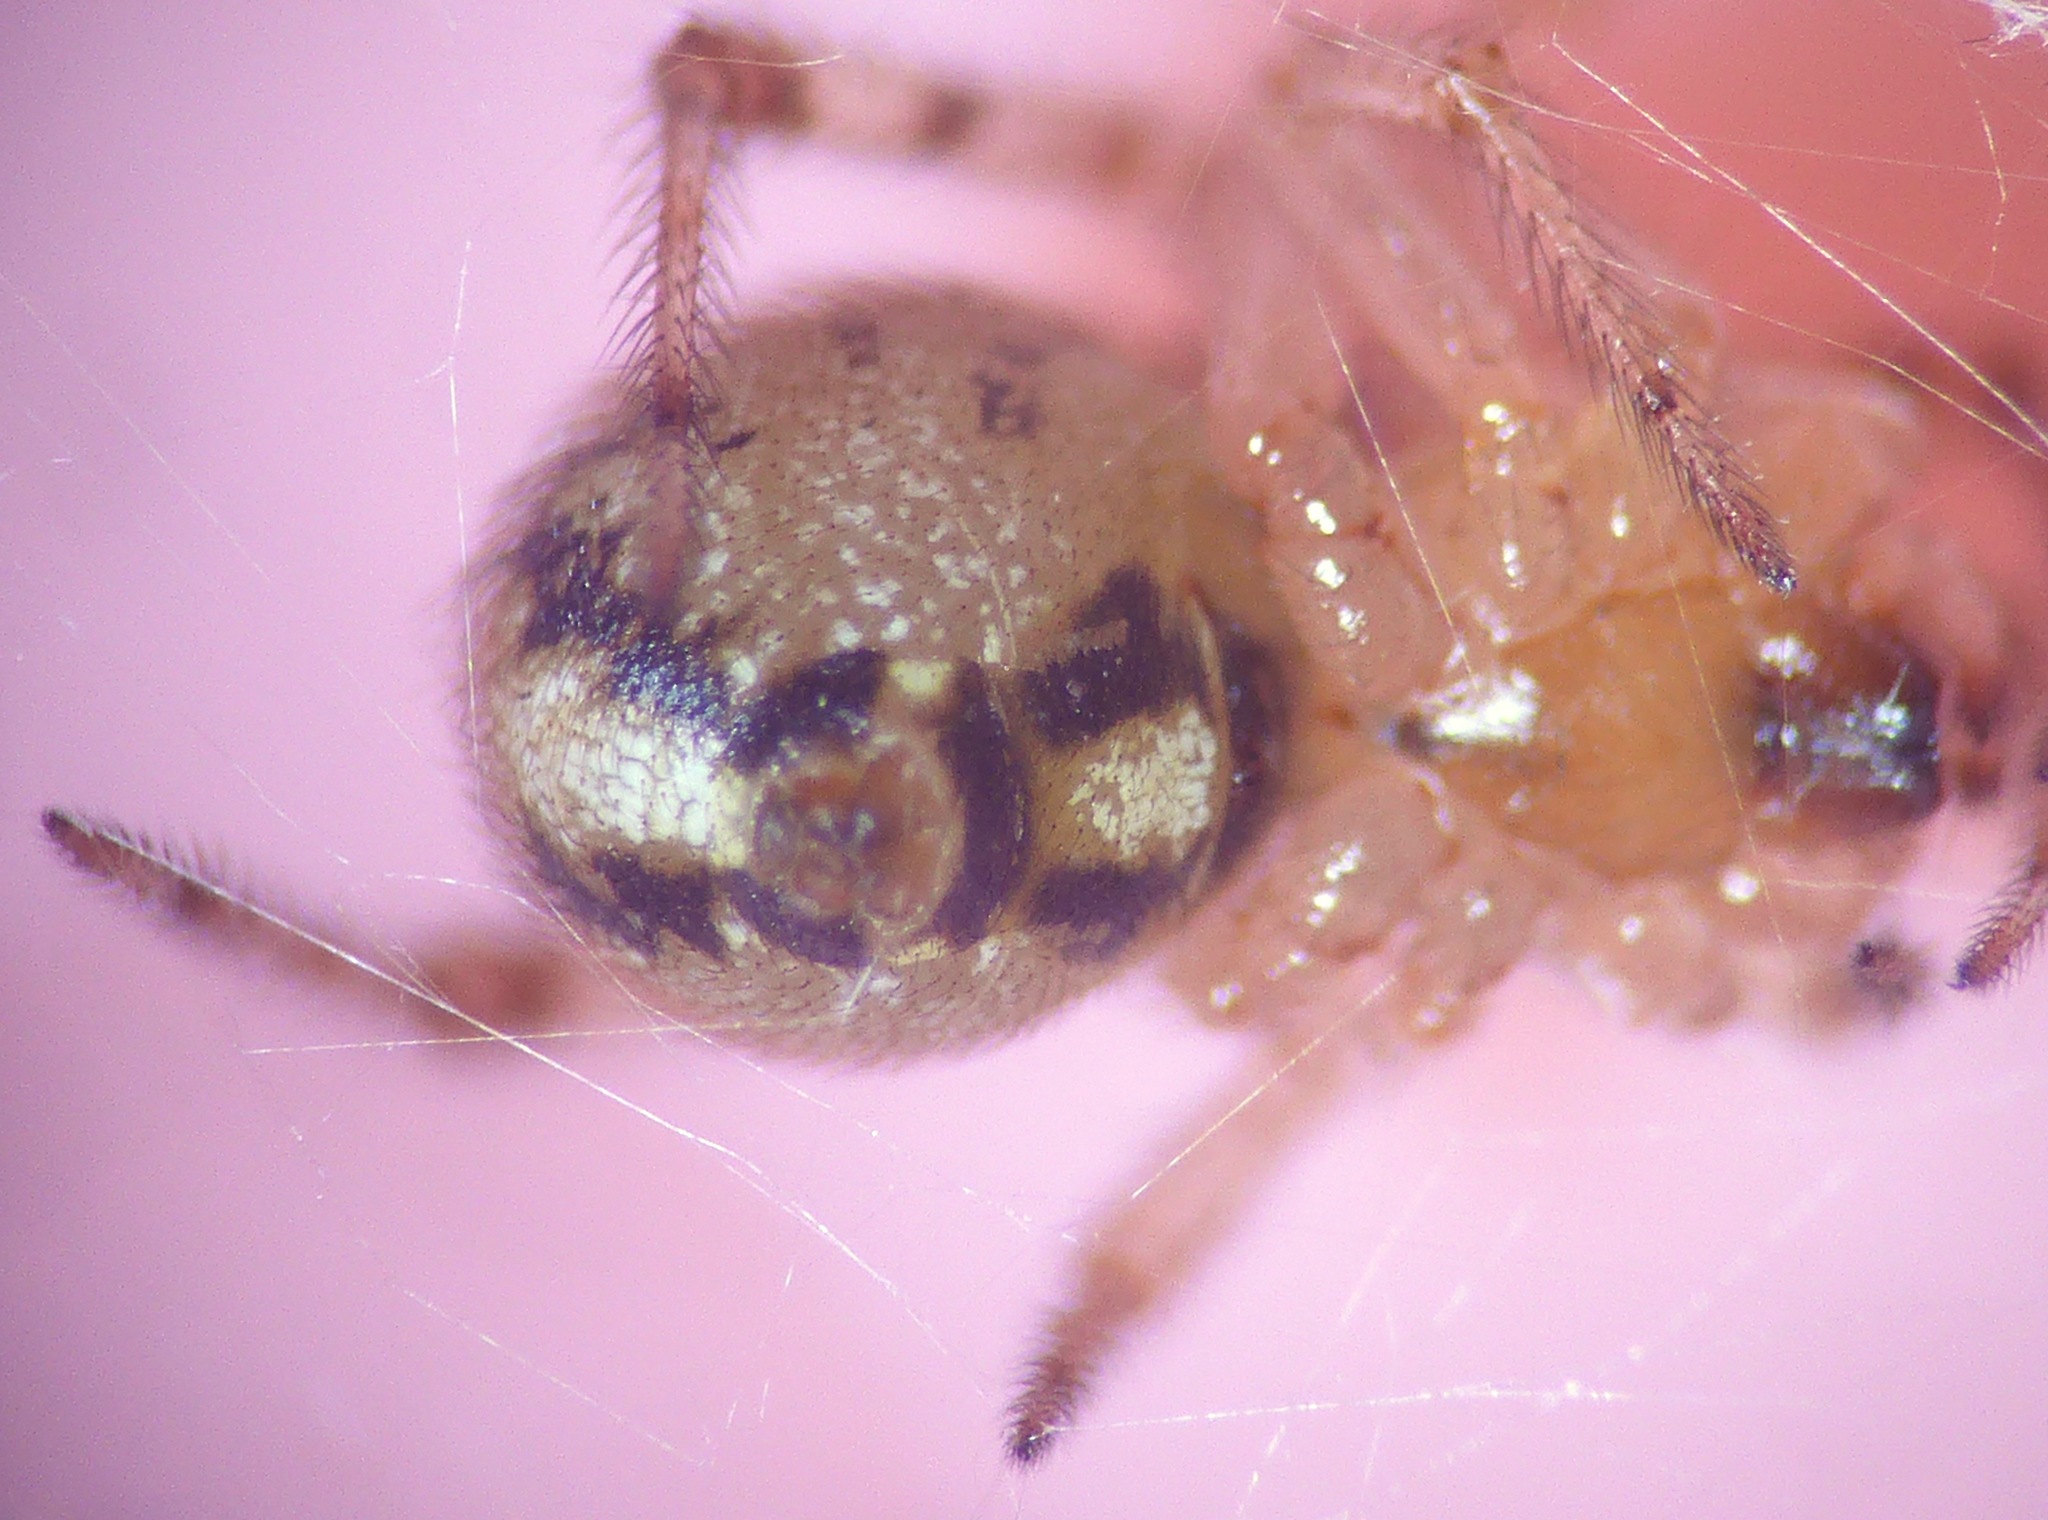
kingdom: Animalia
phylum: Arthropoda
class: Arachnida
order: Araneae
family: Theridiidae
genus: Cryptachaea
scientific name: Cryptachaea veruculata
